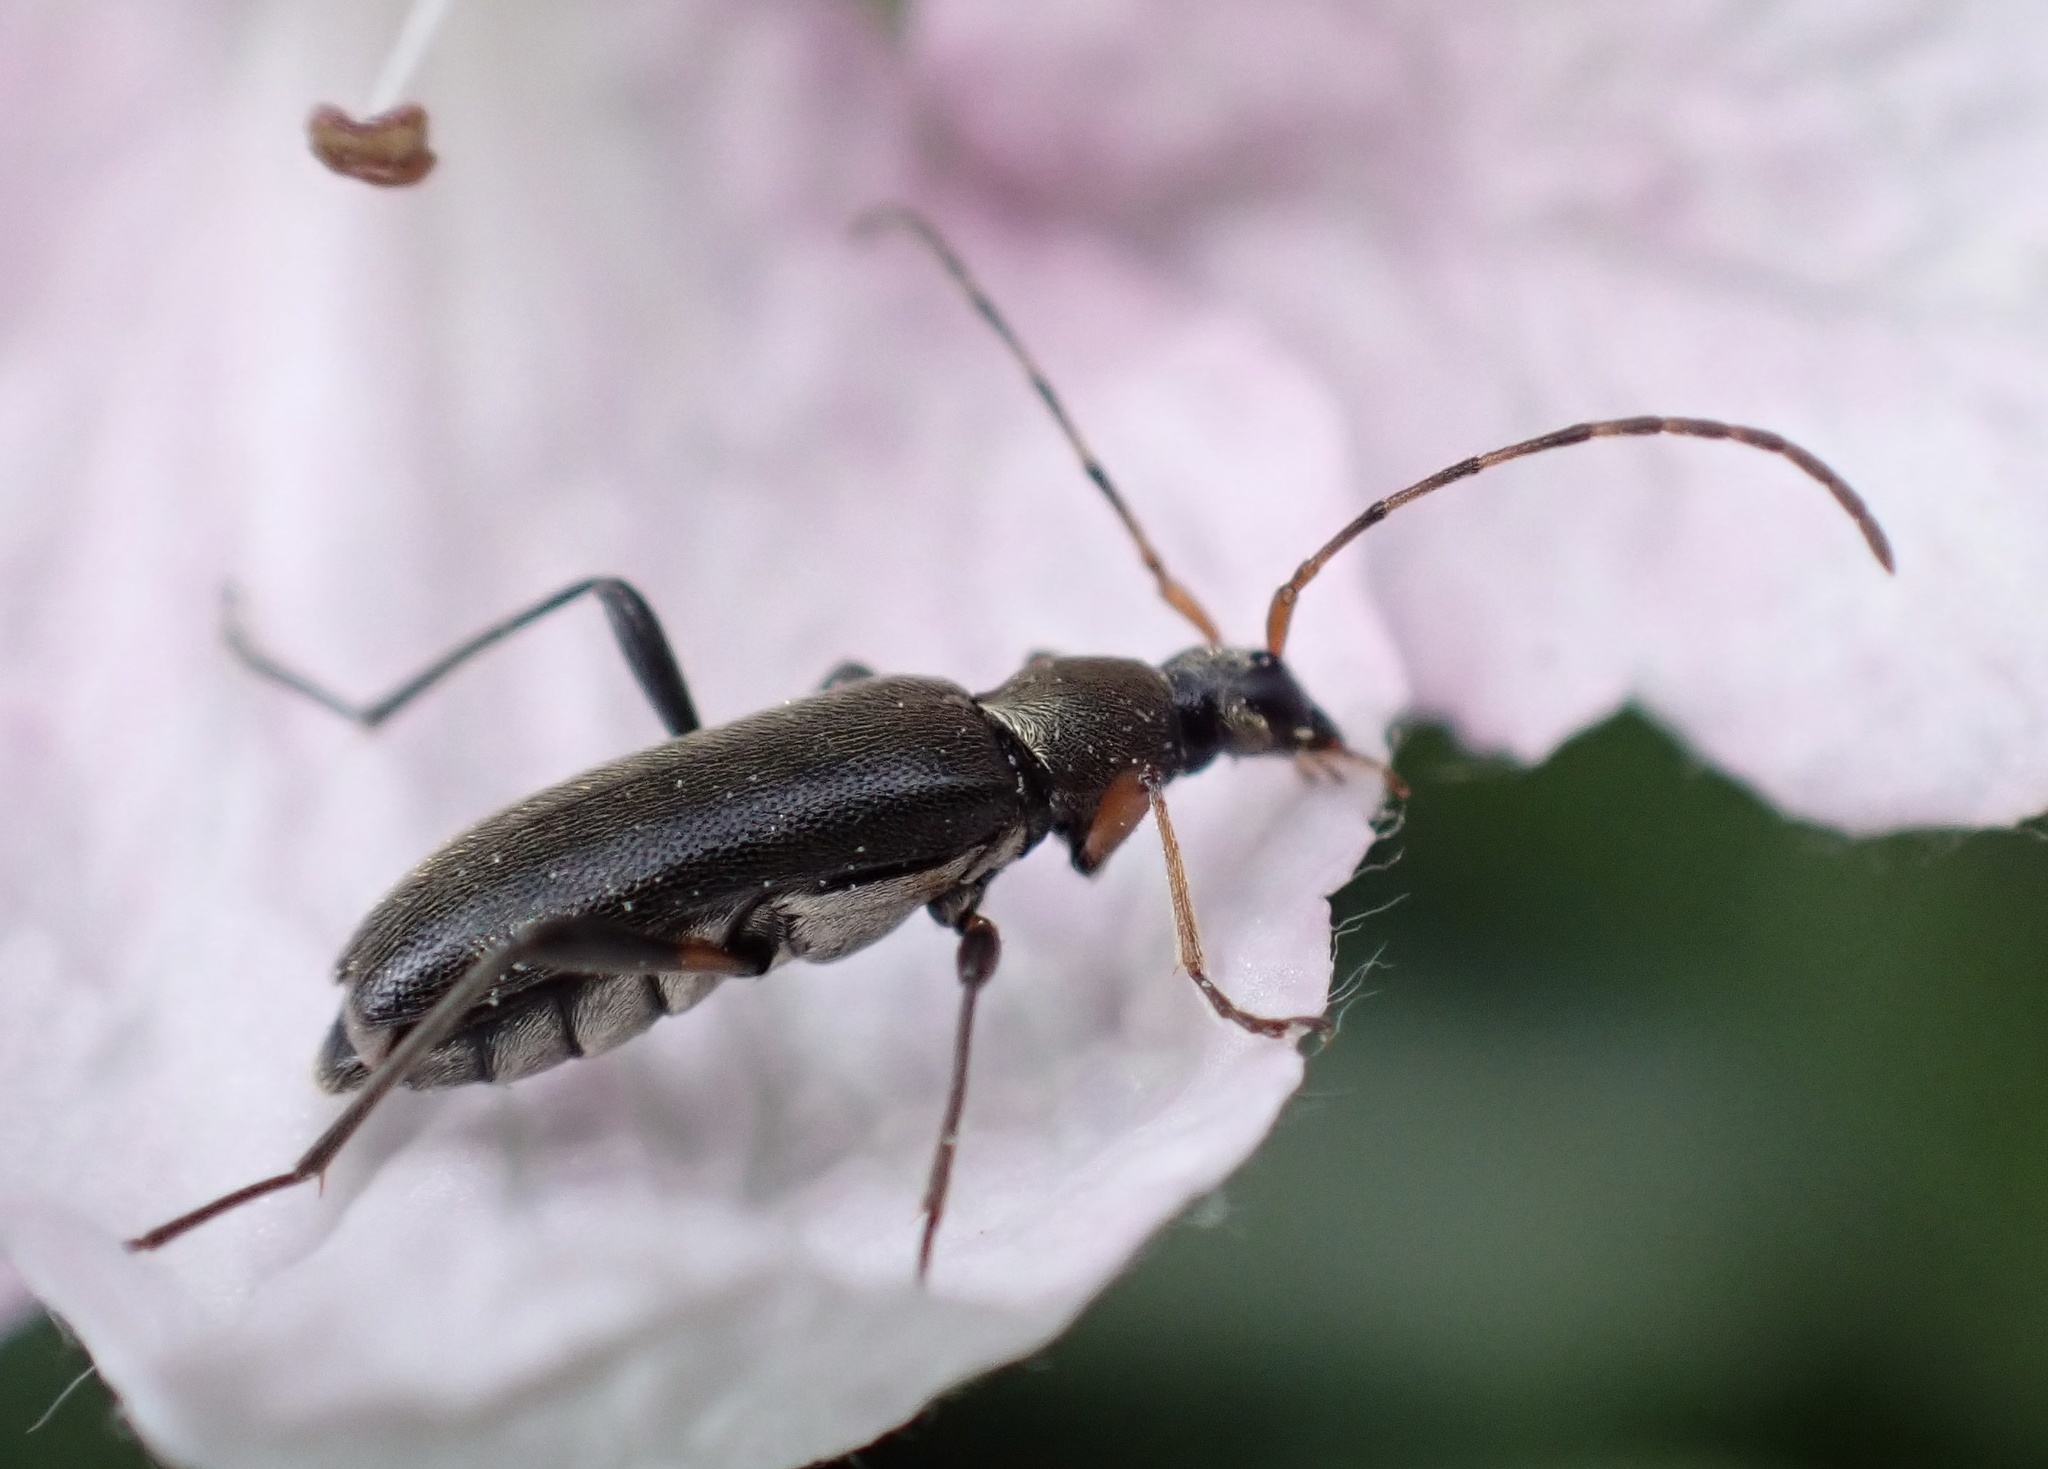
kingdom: Animalia
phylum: Arthropoda
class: Insecta
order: Coleoptera
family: Cerambycidae
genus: Grammoptera
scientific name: Grammoptera ruficornis
